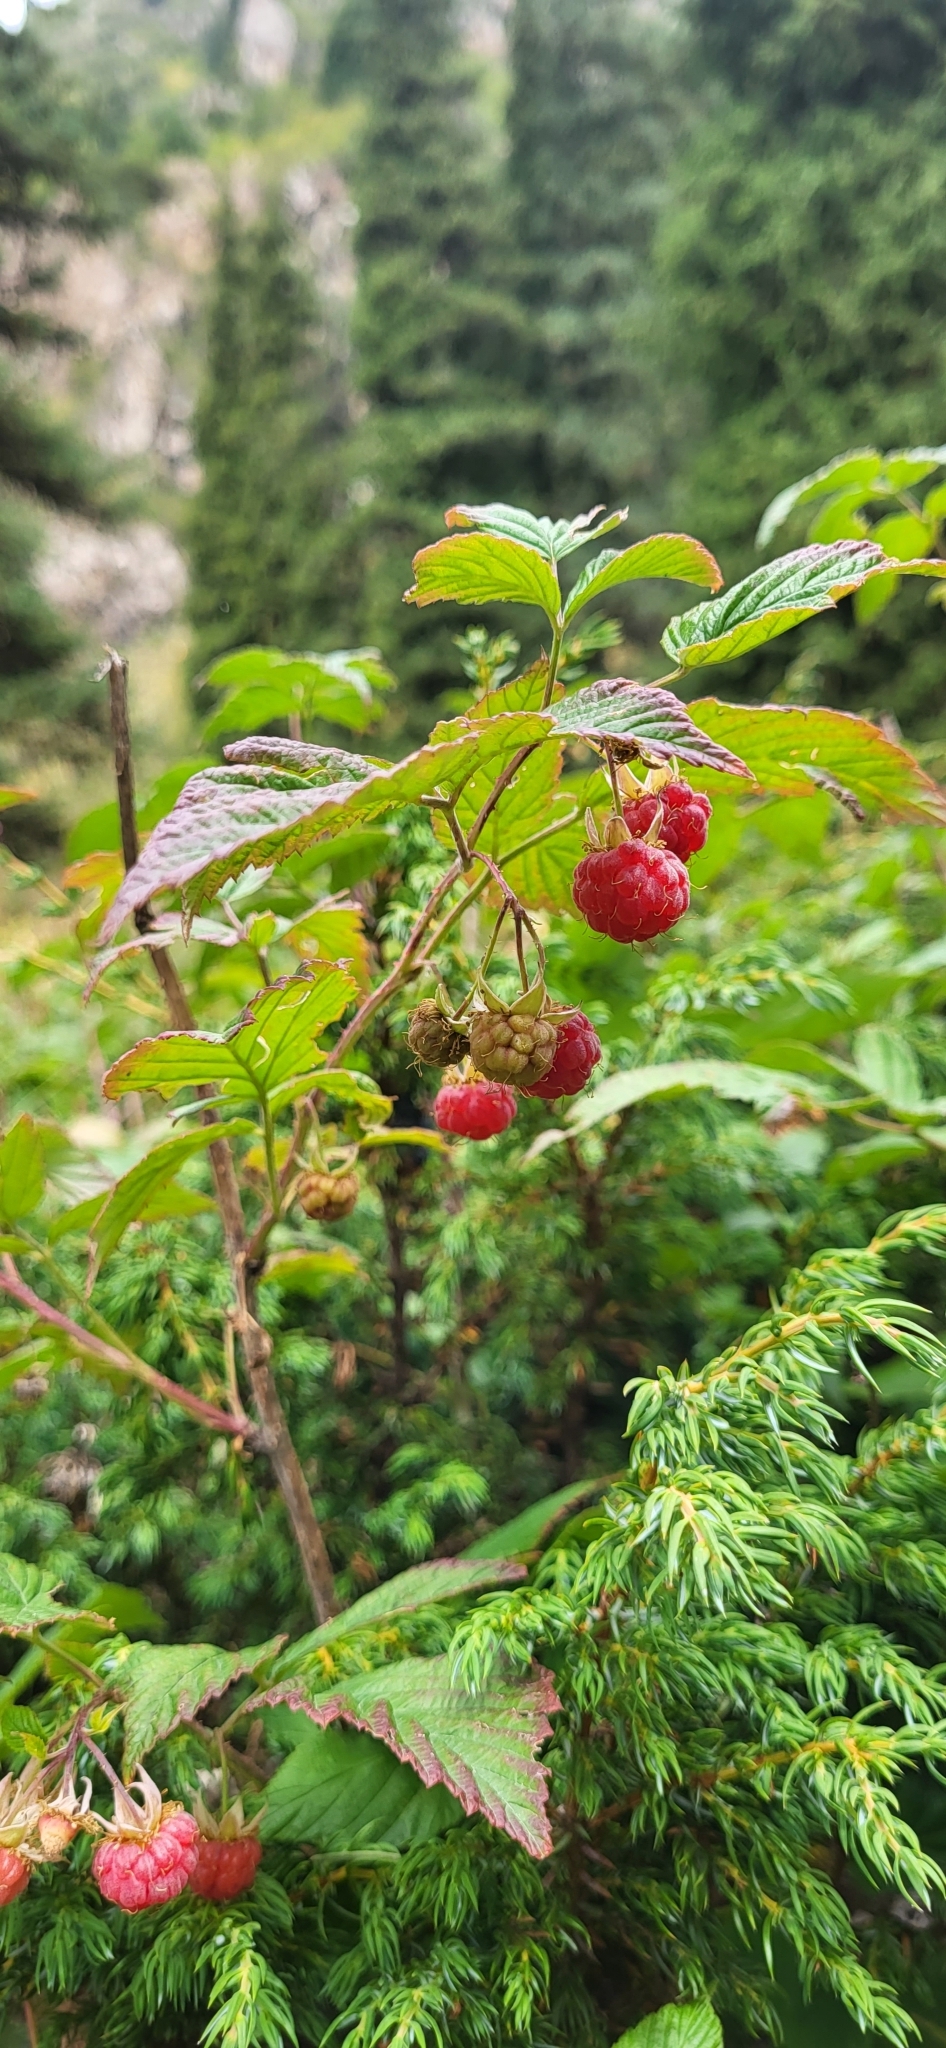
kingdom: Plantae
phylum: Tracheophyta
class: Magnoliopsida
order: Rosales
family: Rosaceae
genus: Rubus
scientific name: Rubus idaeus
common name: Raspberry
